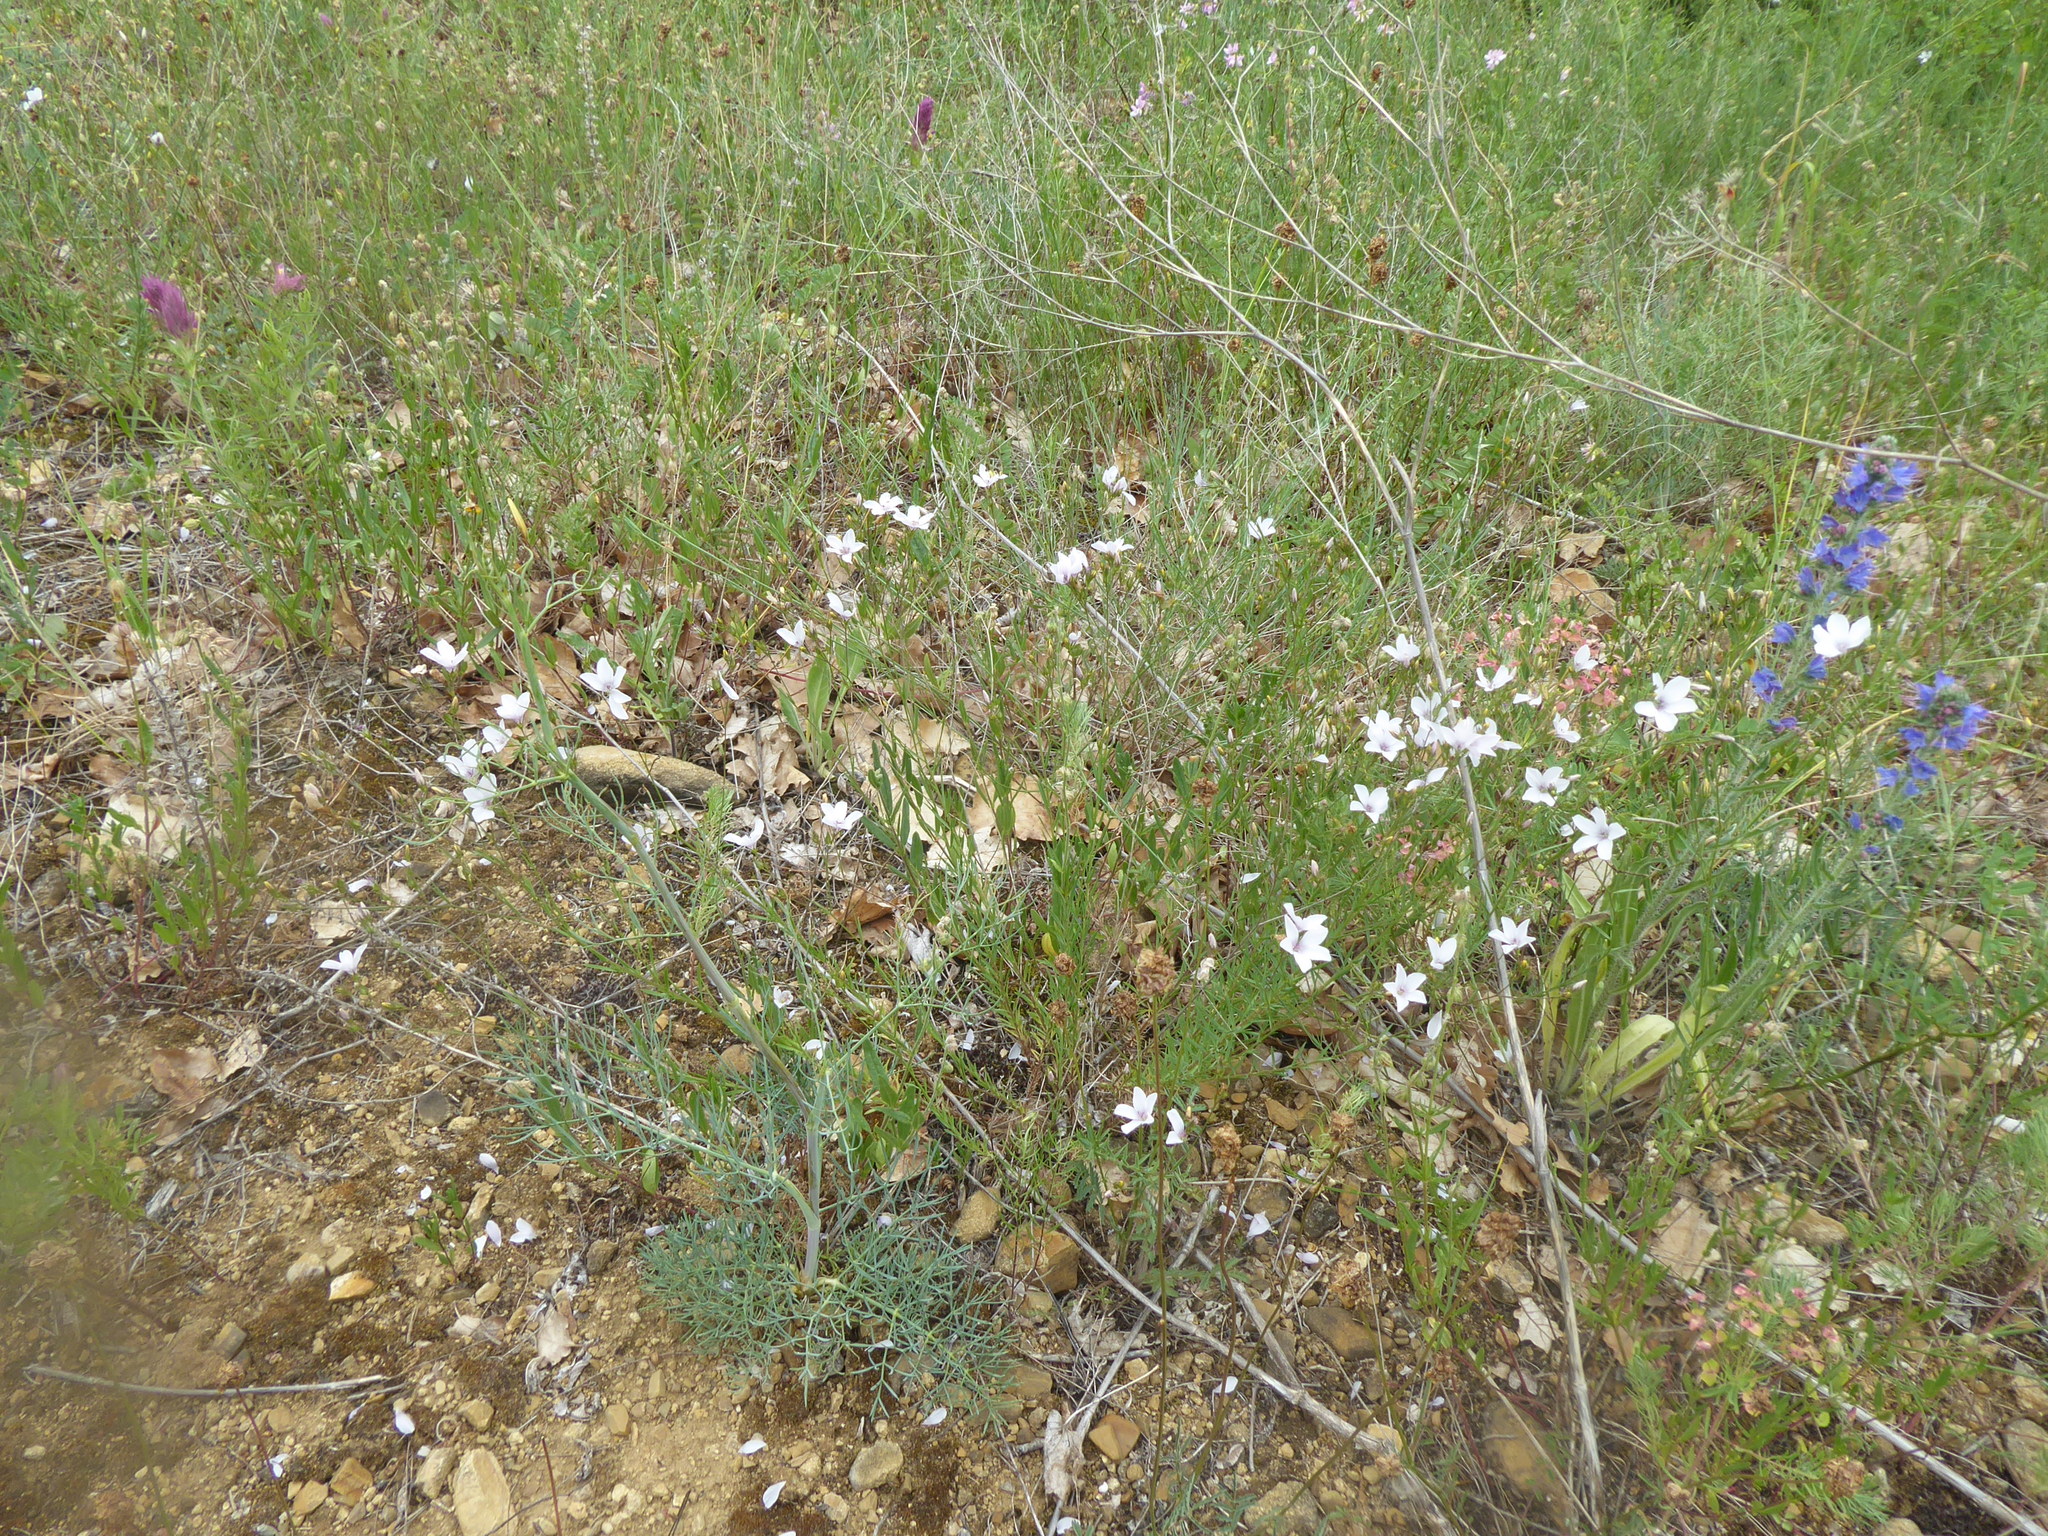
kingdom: Plantae
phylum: Tracheophyta
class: Magnoliopsida
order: Malpighiales
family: Linaceae
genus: Linum
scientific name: Linum tenuifolium
